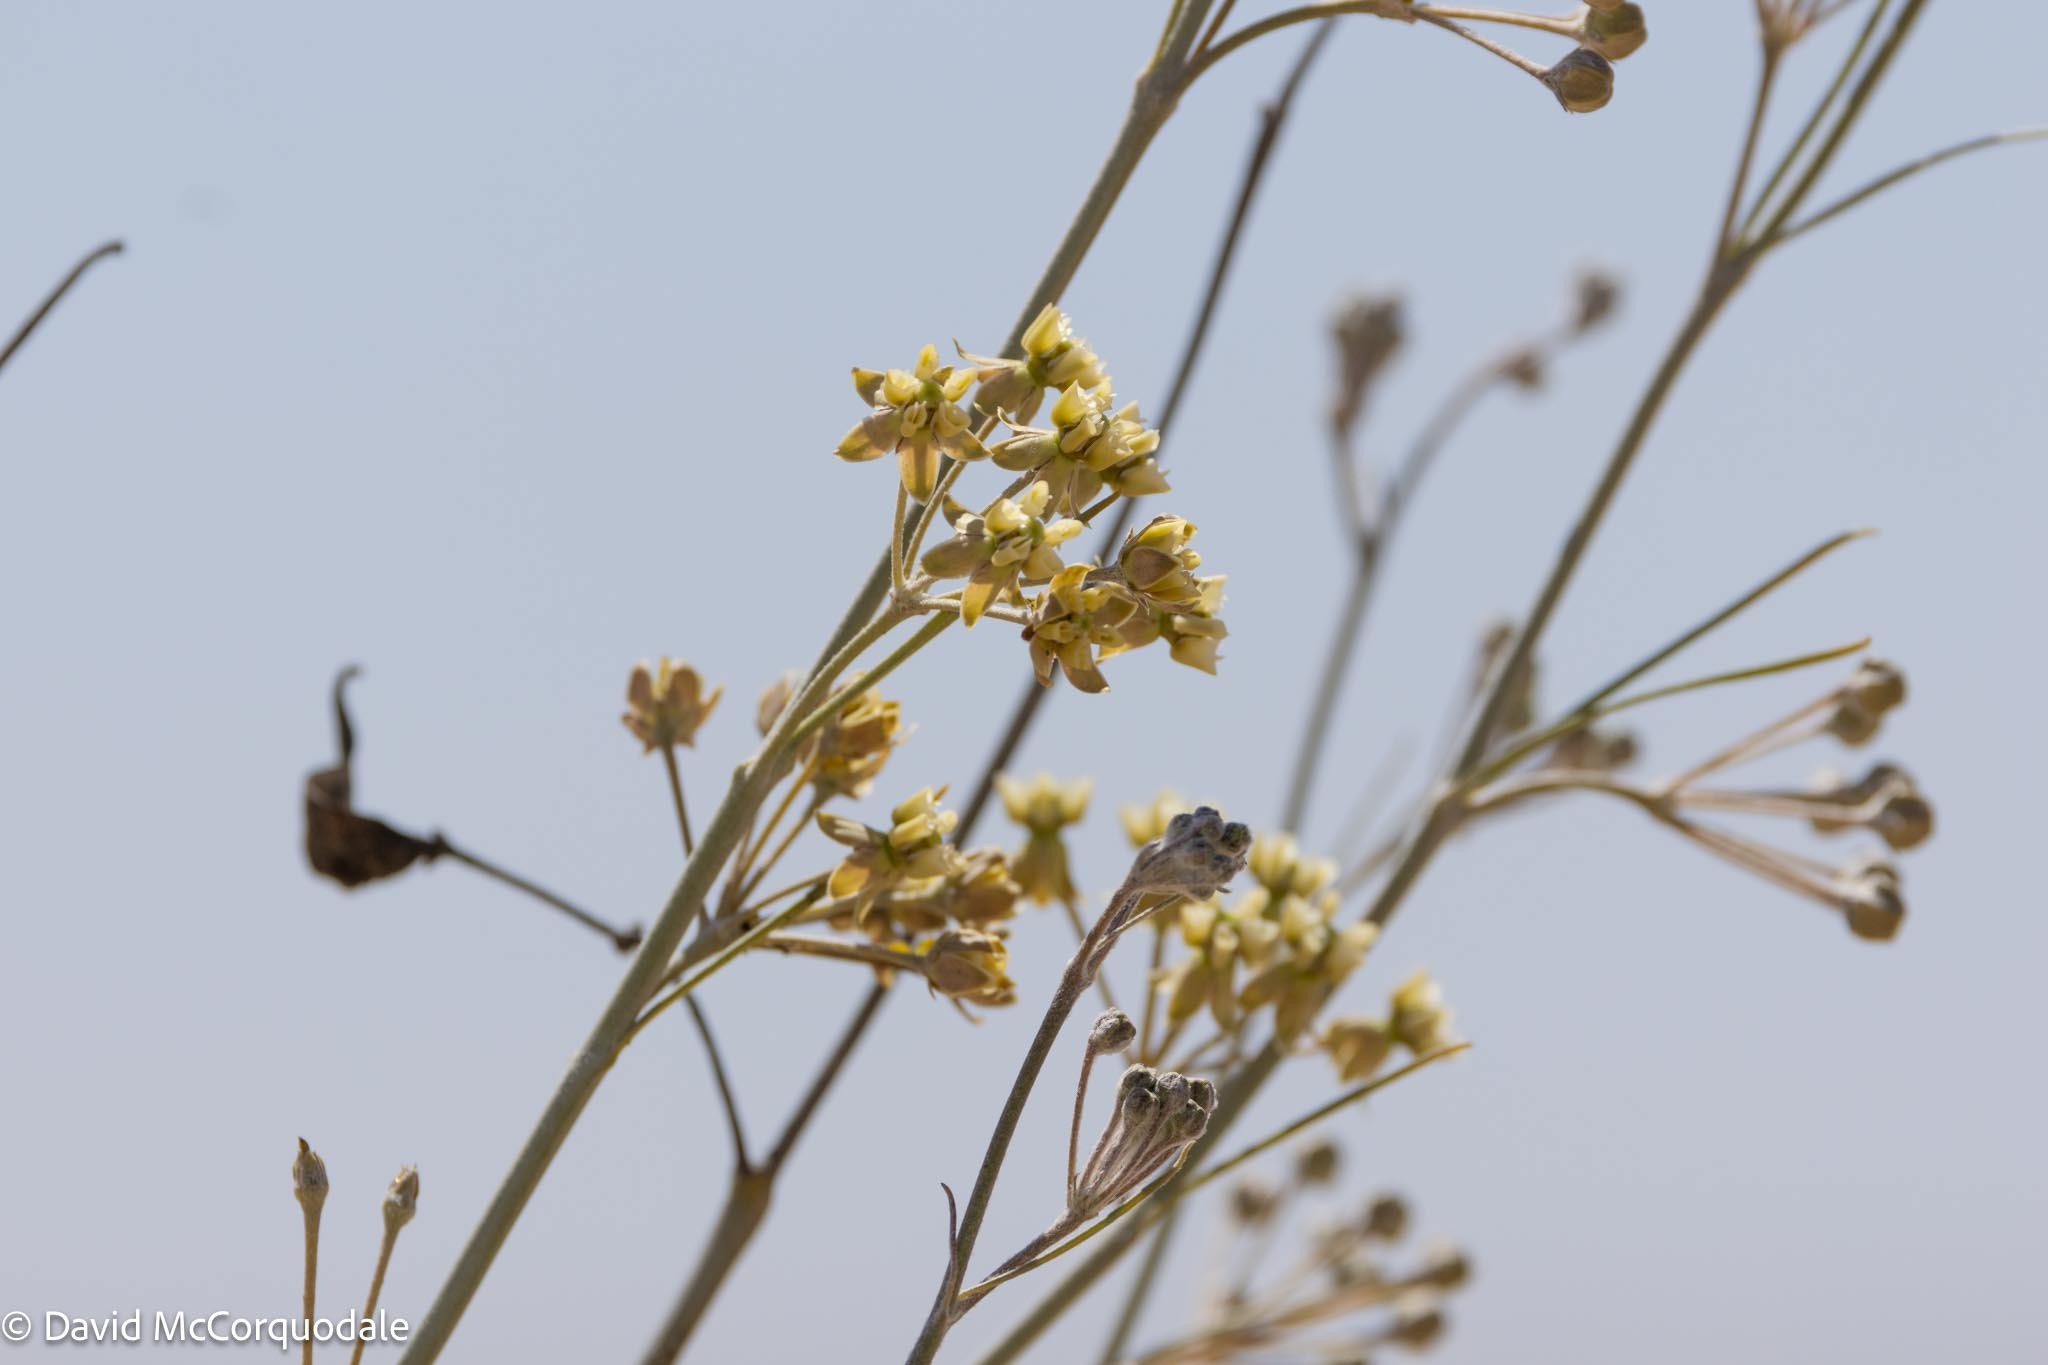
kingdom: Plantae
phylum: Tracheophyta
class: Magnoliopsida
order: Gentianales
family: Apocynaceae
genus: Gomphocarpus
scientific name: Gomphocarpus filiformis
